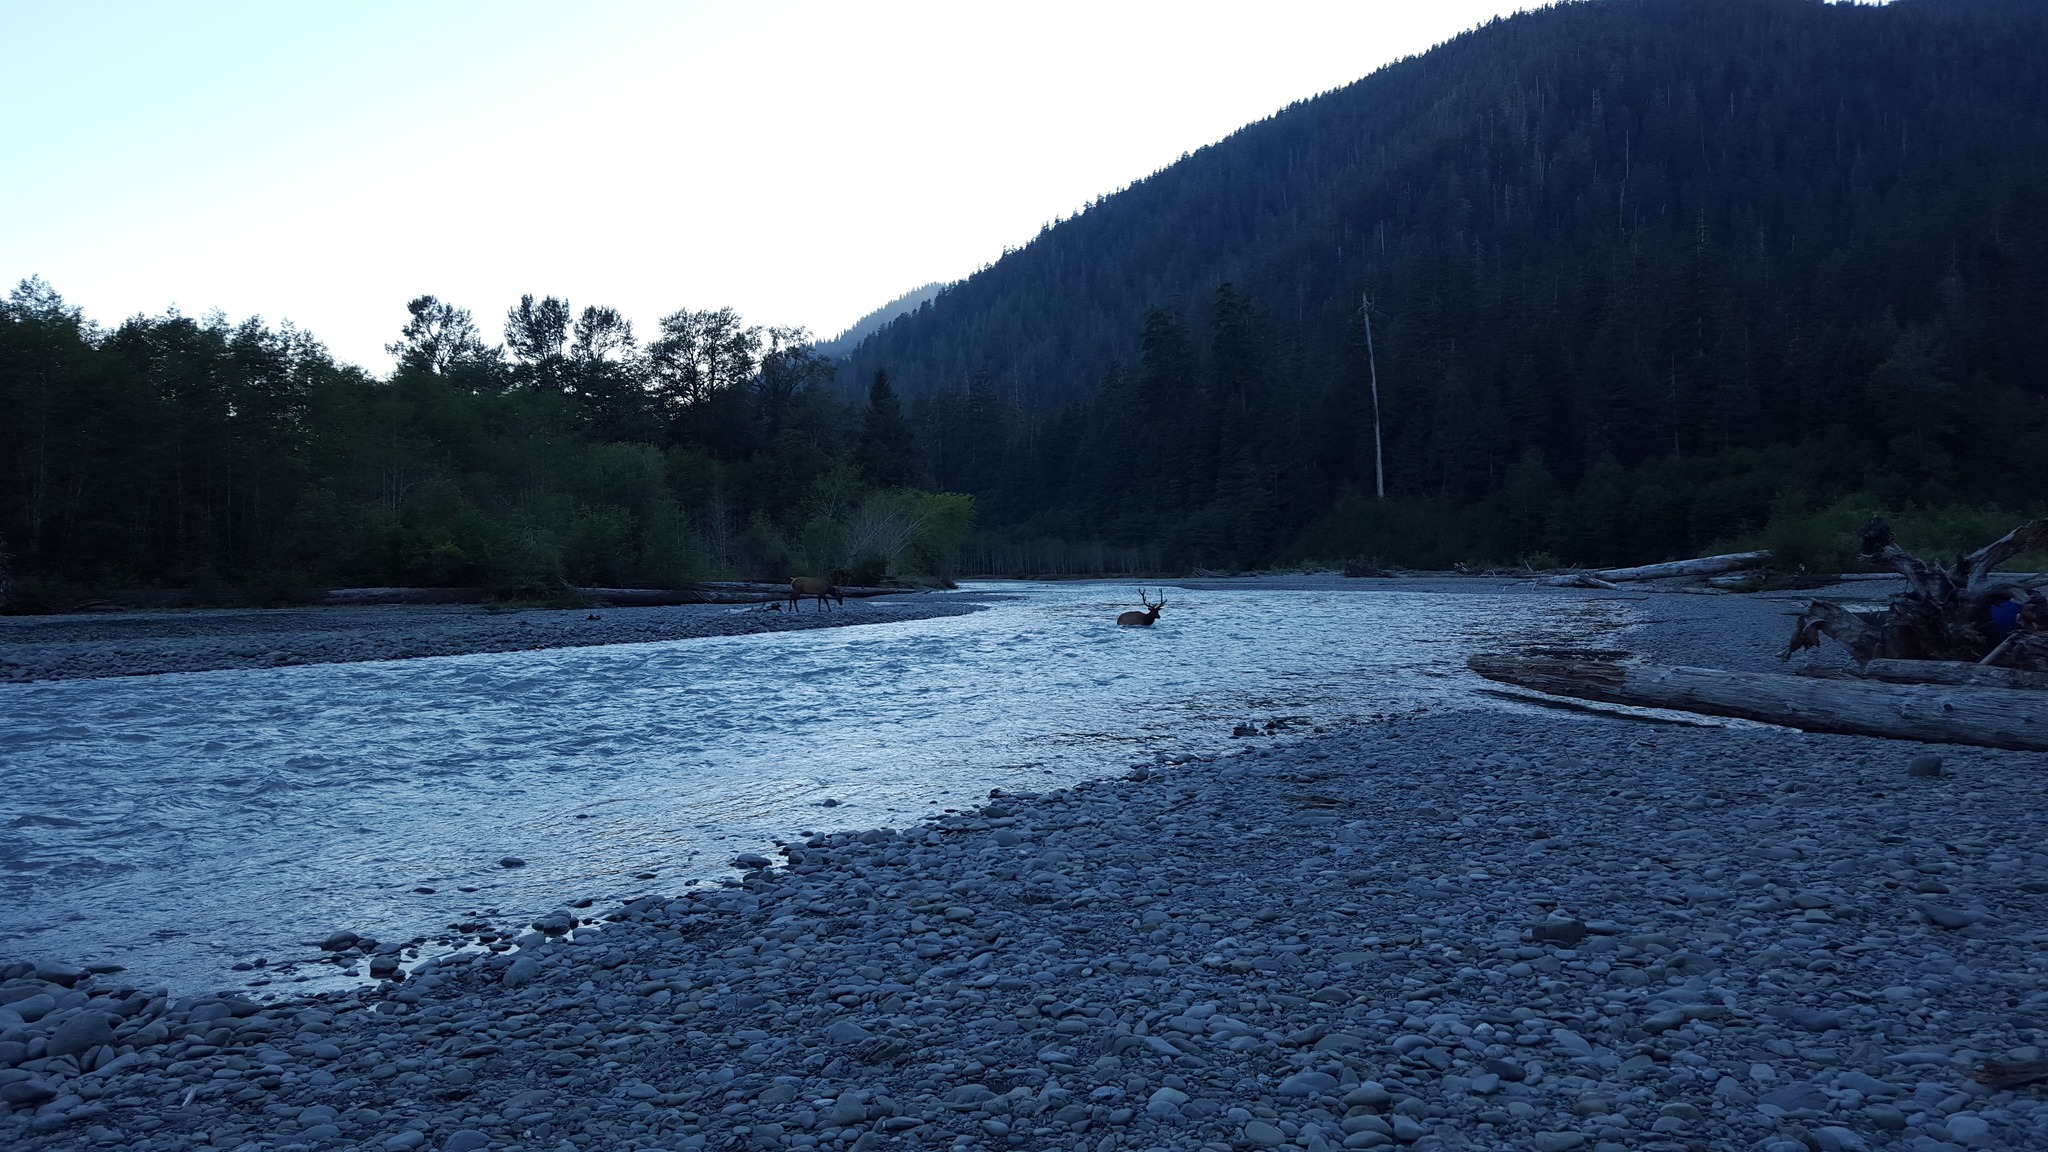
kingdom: Animalia
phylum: Chordata
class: Mammalia
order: Artiodactyla
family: Cervidae
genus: Cervus
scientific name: Cervus elaphus
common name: Red deer
